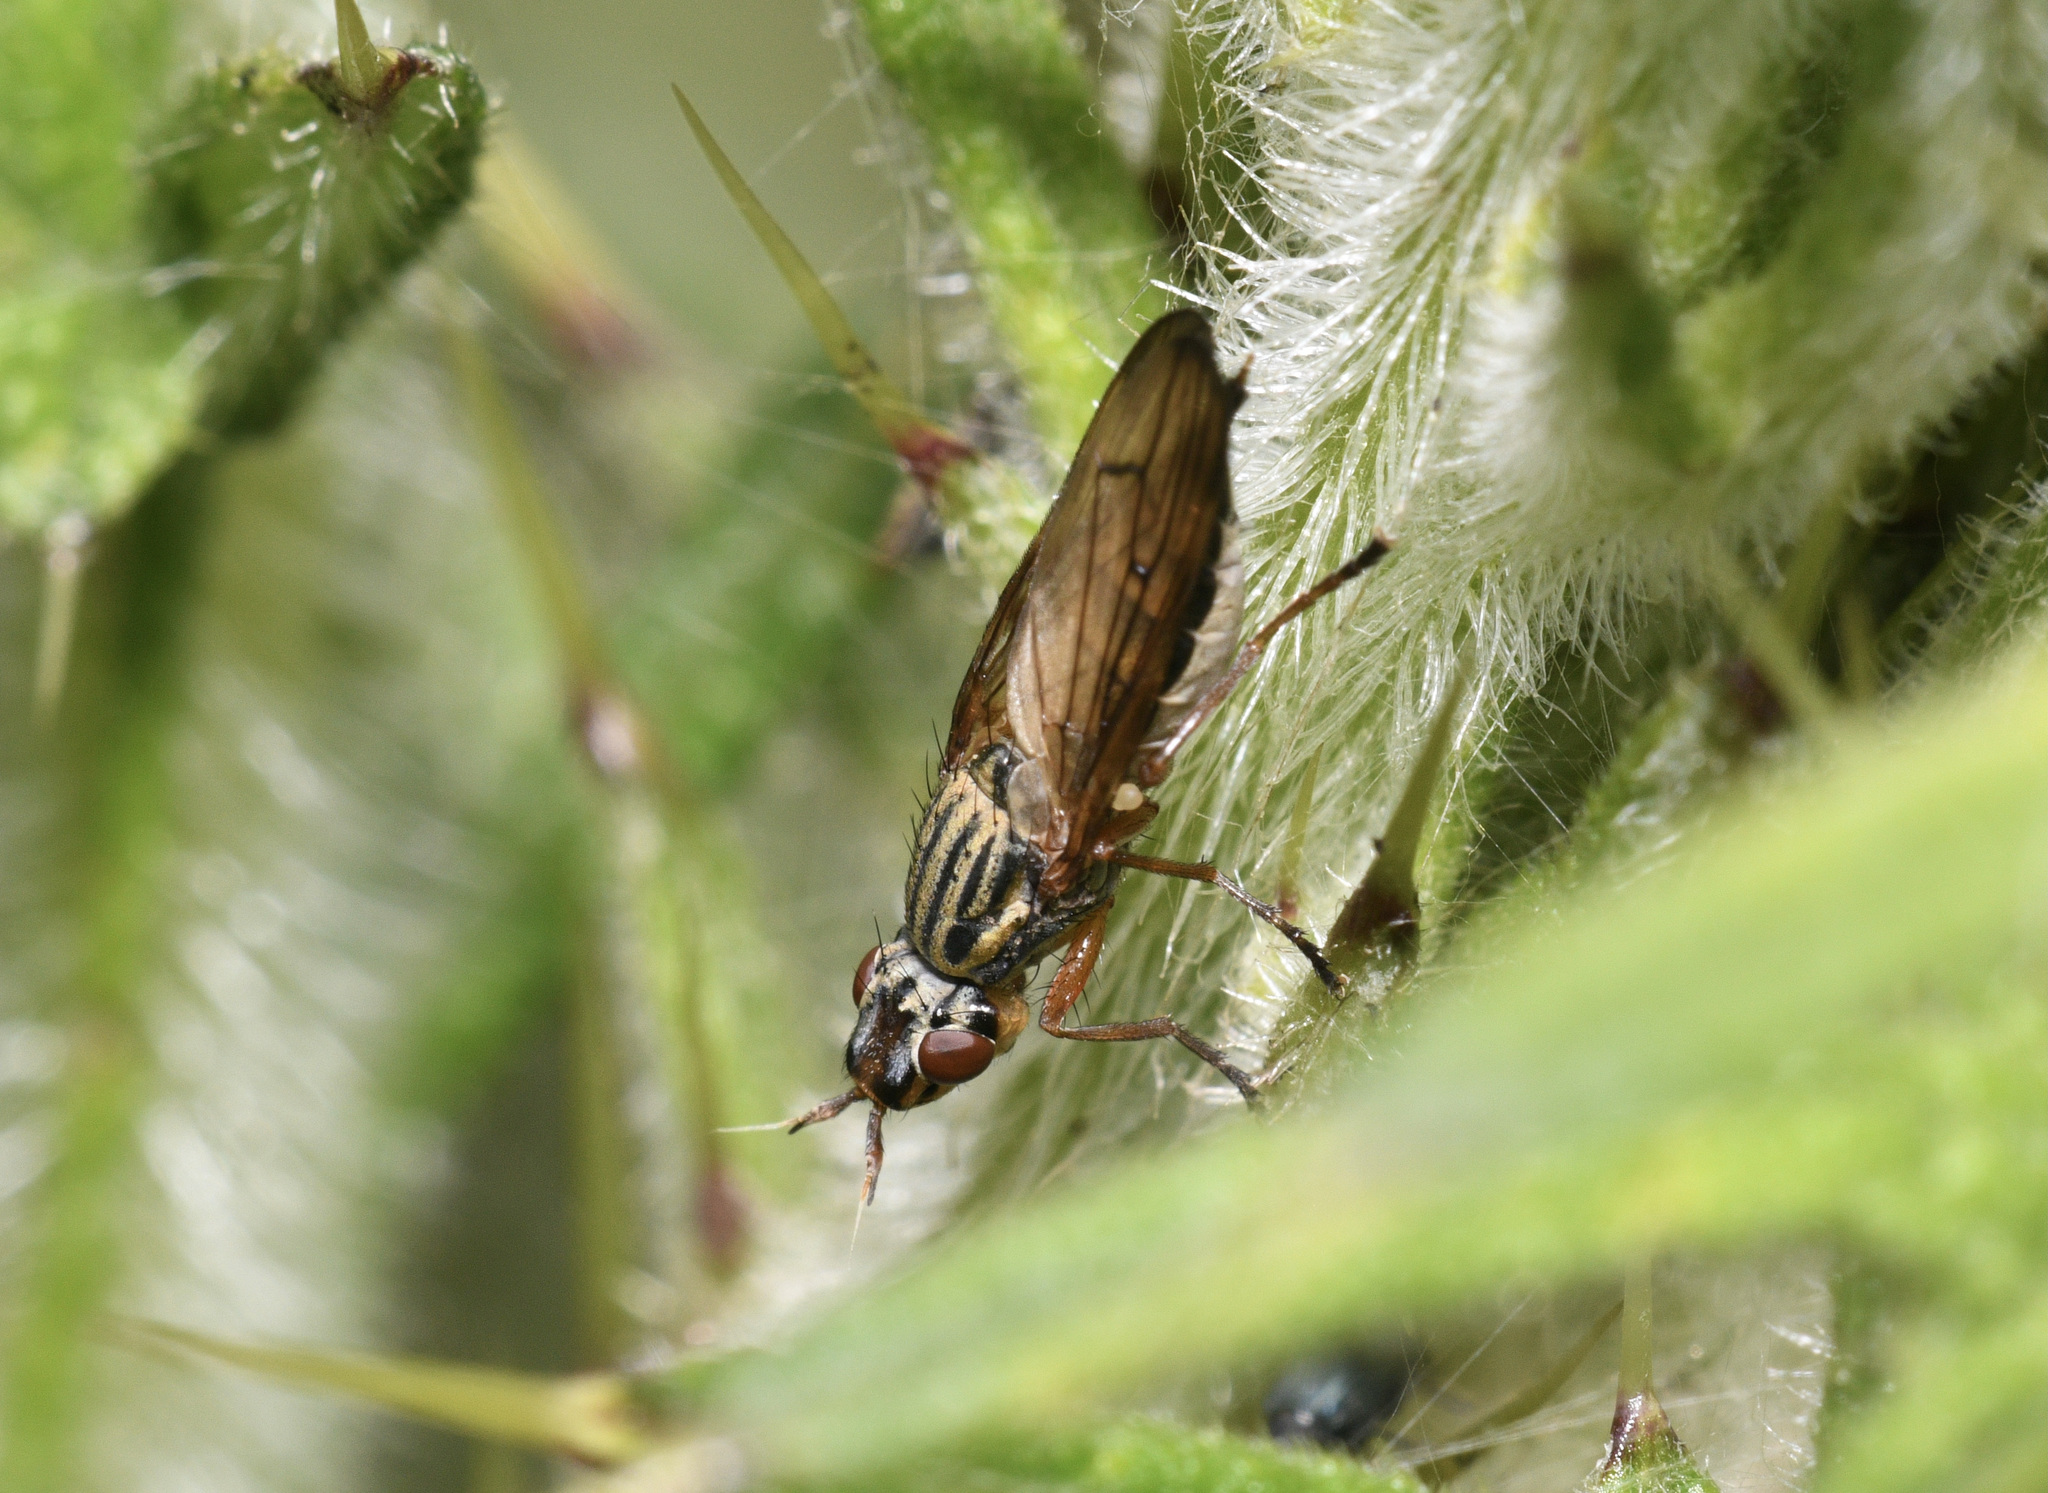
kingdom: Animalia
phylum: Arthropoda
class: Insecta
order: Diptera
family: Ulidiidae
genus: Dorycera
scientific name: Dorycera aquatica
